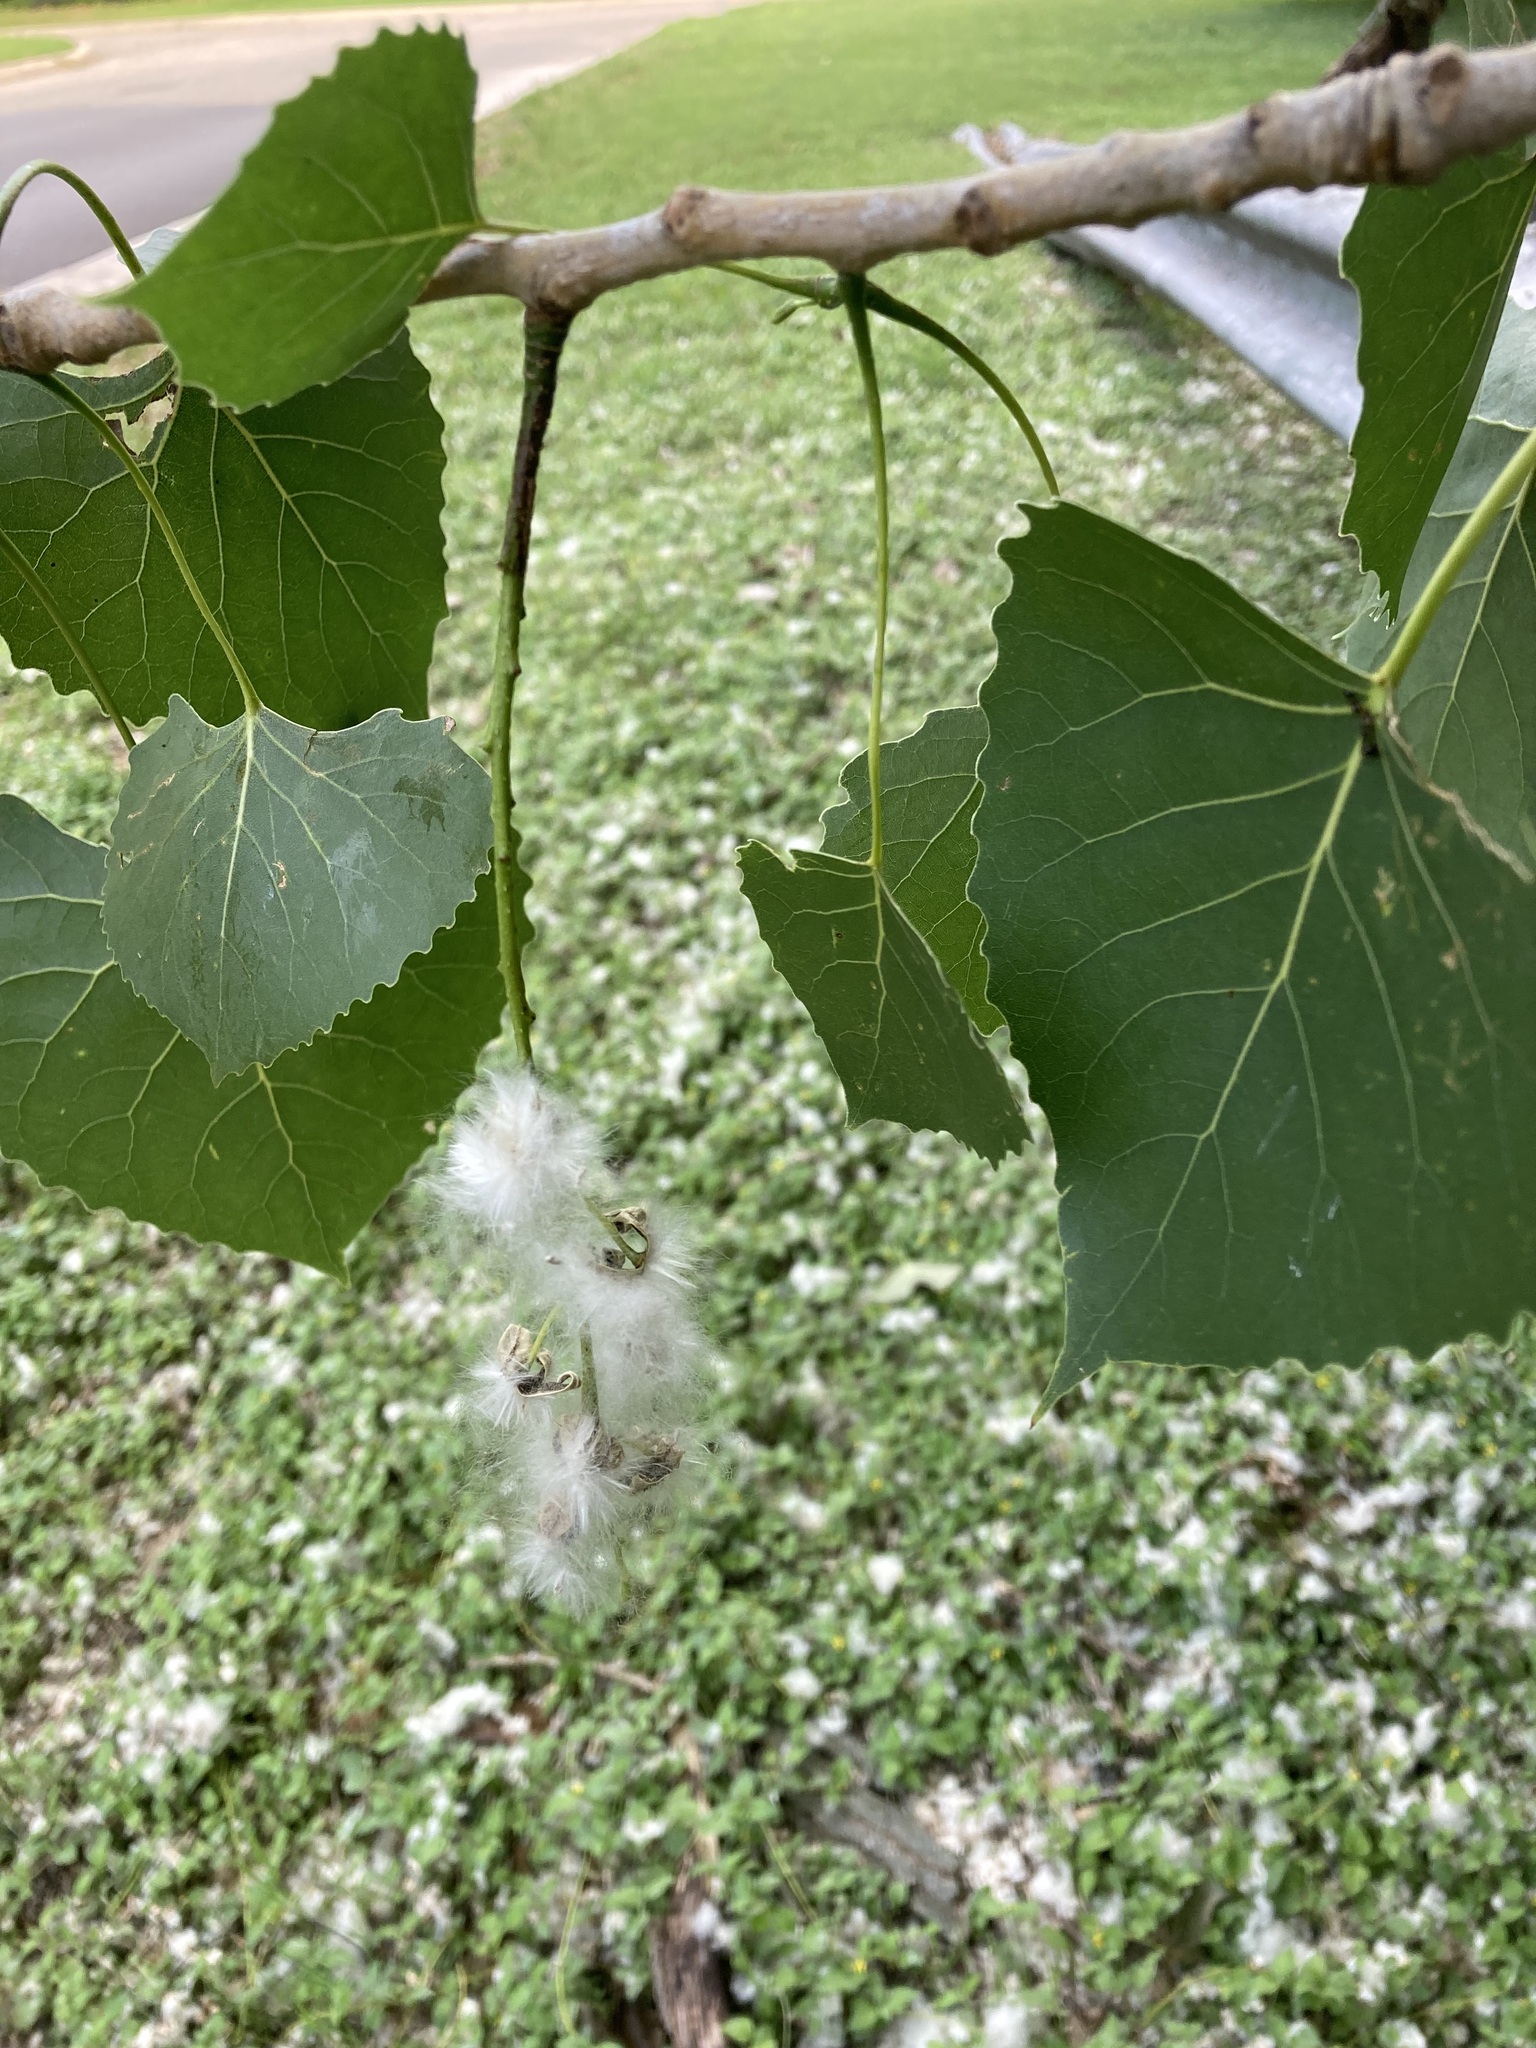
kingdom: Plantae
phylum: Tracheophyta
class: Magnoliopsida
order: Malpighiales
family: Salicaceae
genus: Populus
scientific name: Populus deltoides
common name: Eastern cottonwood
